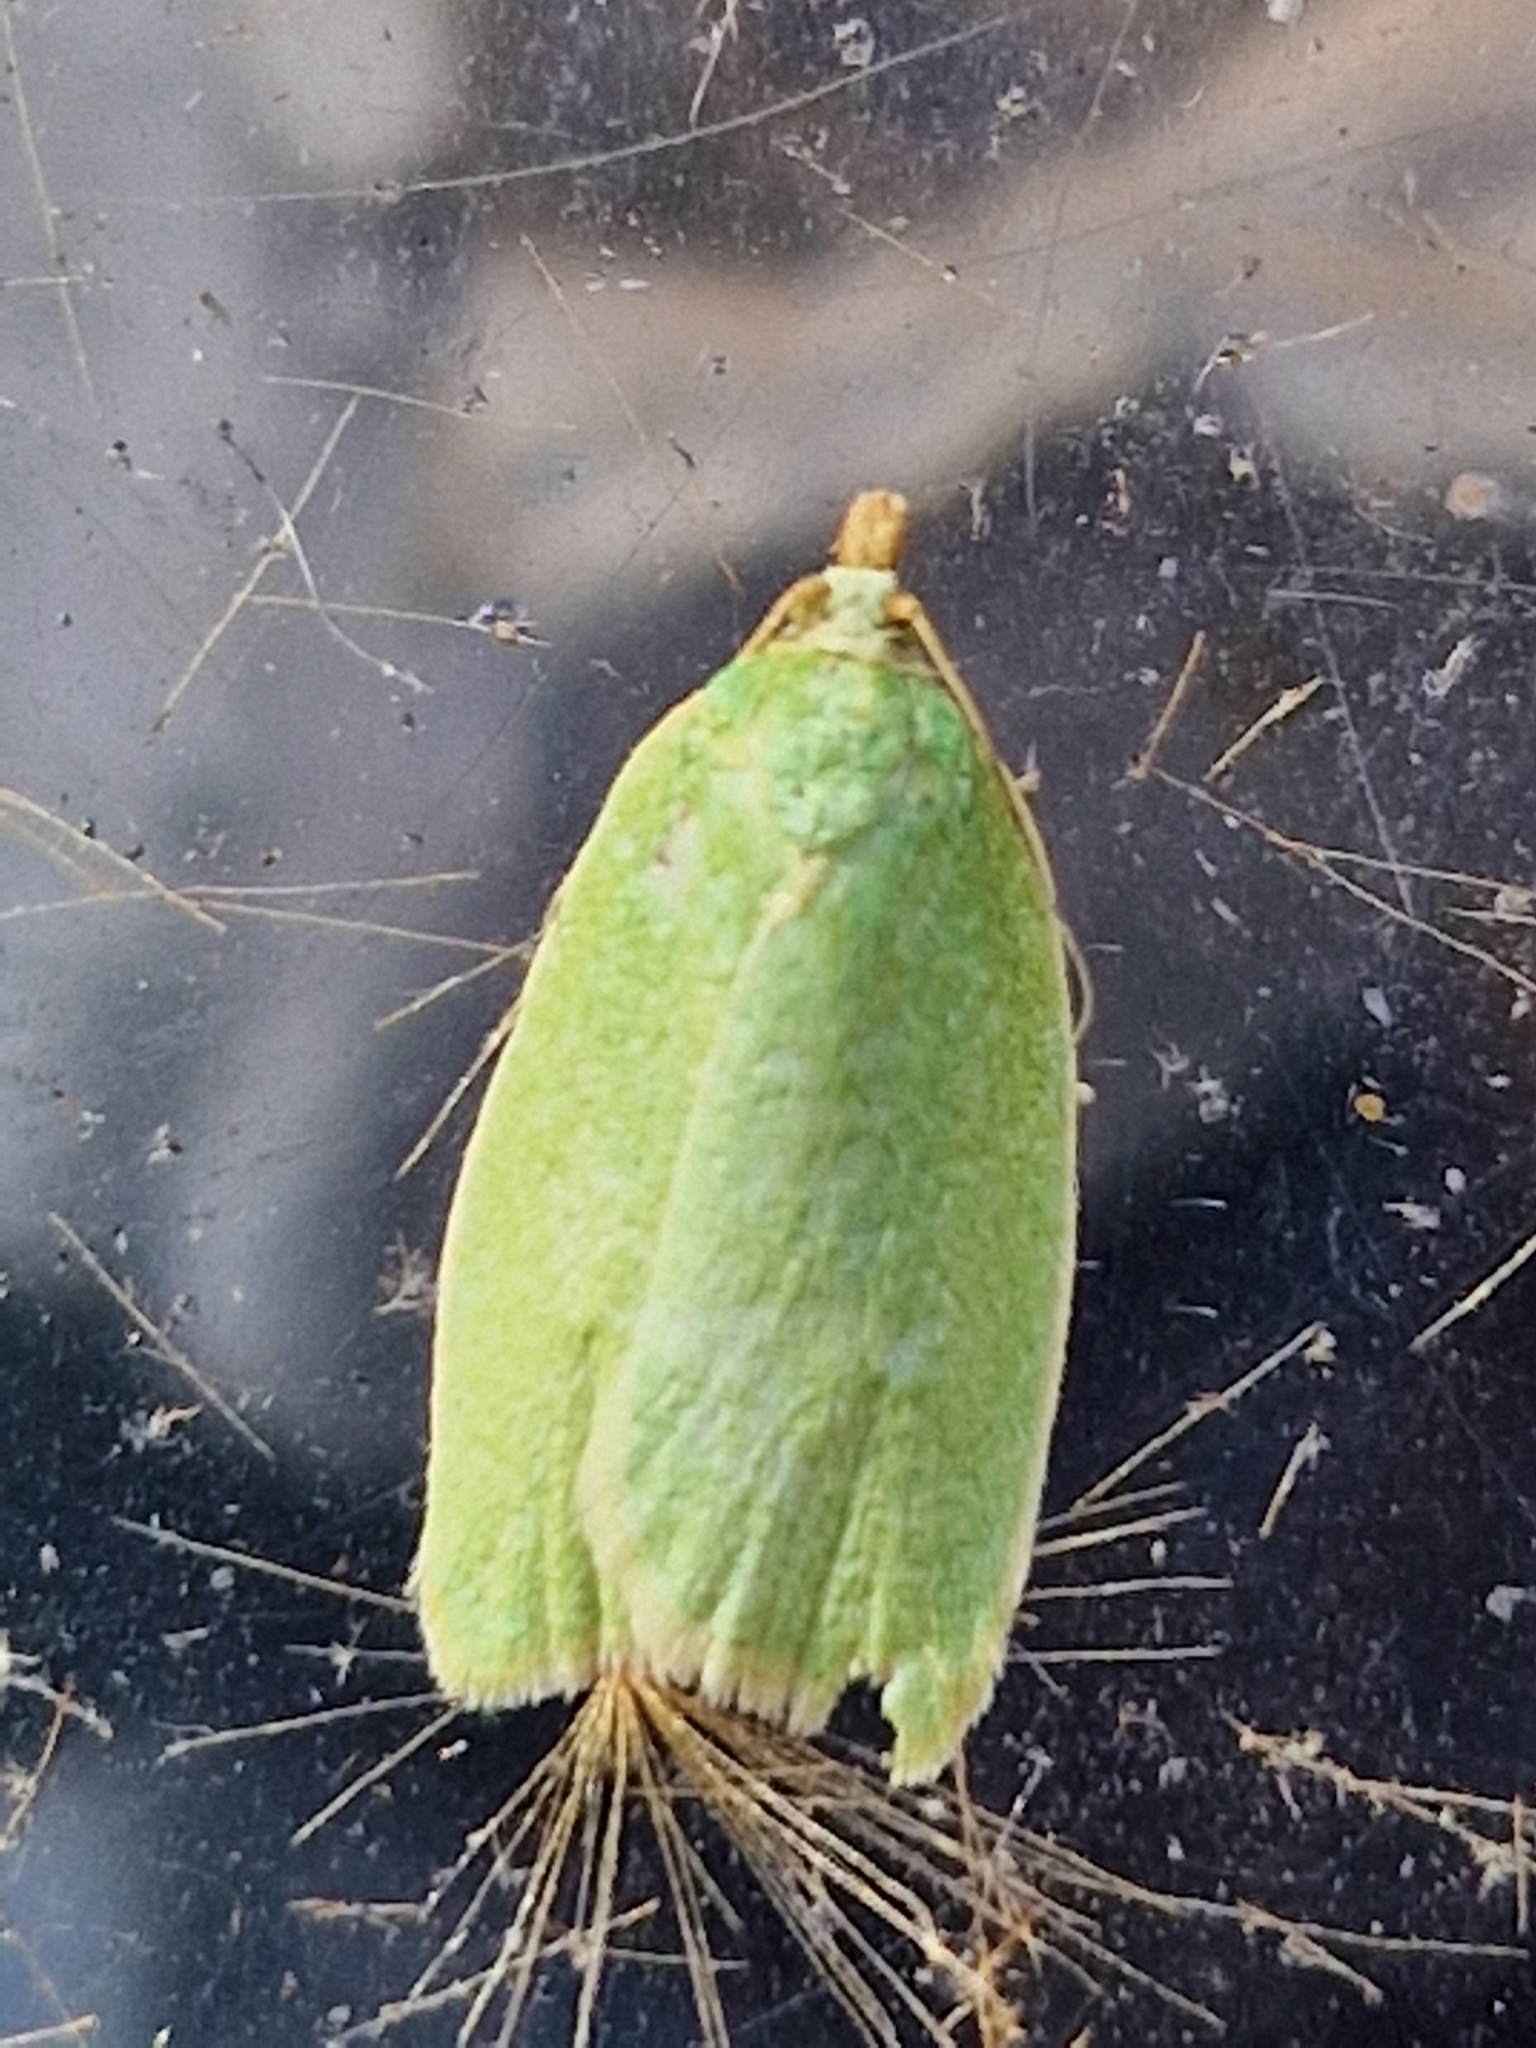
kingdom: Animalia
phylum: Arthropoda
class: Insecta
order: Lepidoptera
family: Tortricidae
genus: Tortrix
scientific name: Tortrix viridana
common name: Green oak tortrix
